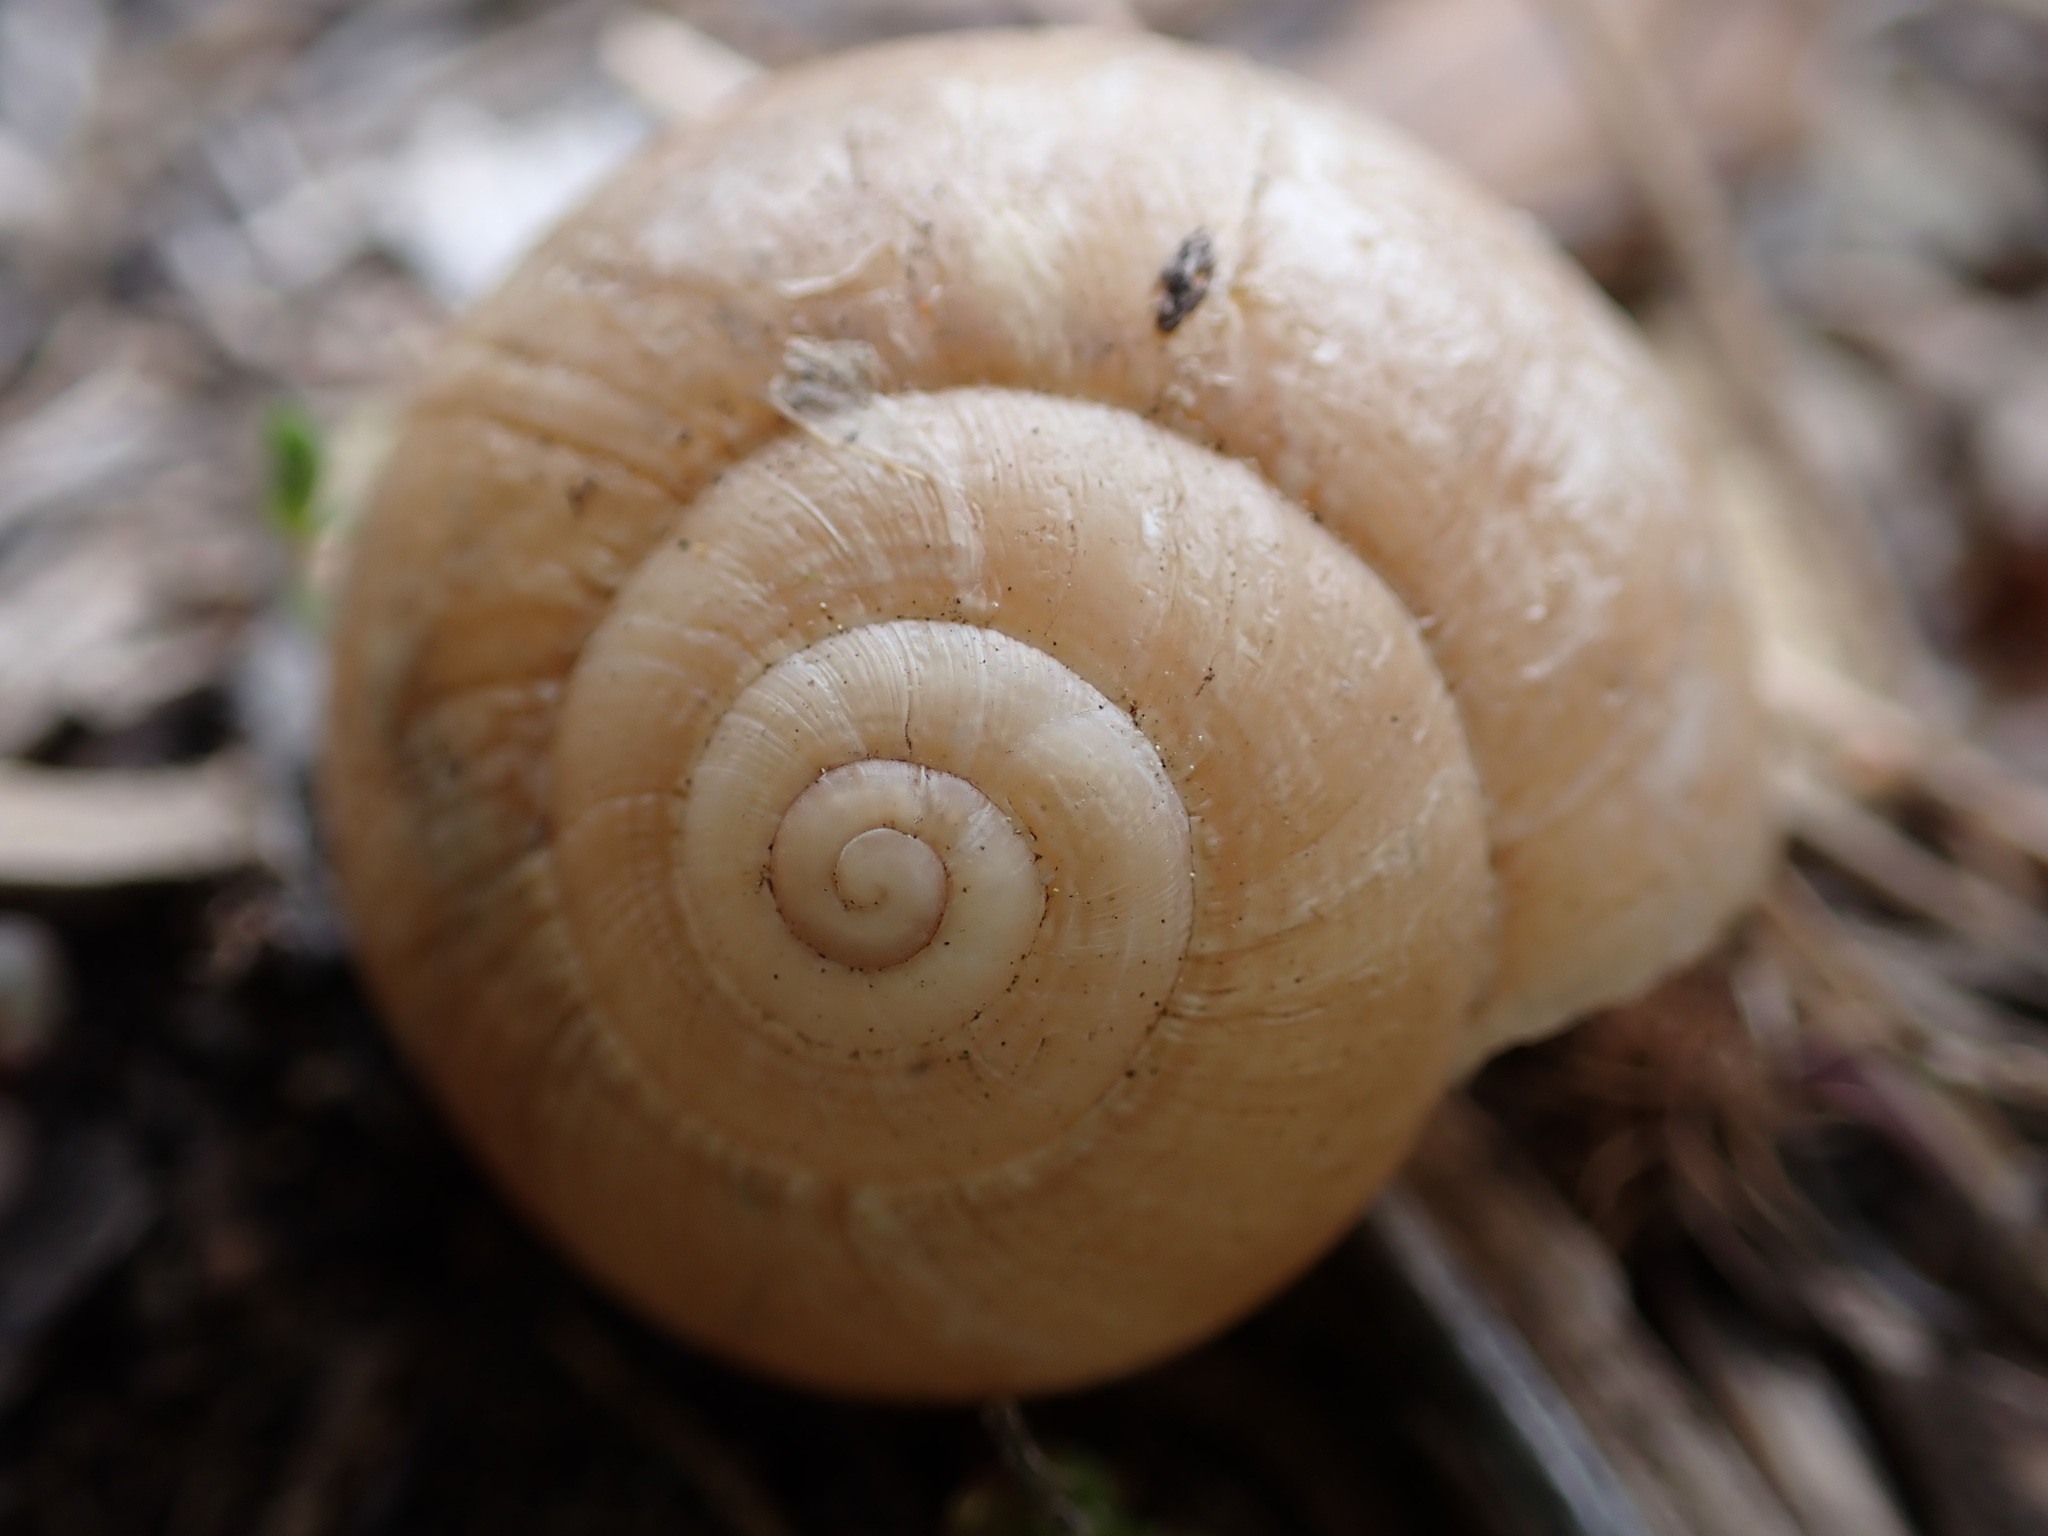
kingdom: Animalia
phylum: Mollusca
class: Gastropoda
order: Stylommatophora
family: Helicidae
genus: Eobania
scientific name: Eobania vermiculata
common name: Chocolateband snail
